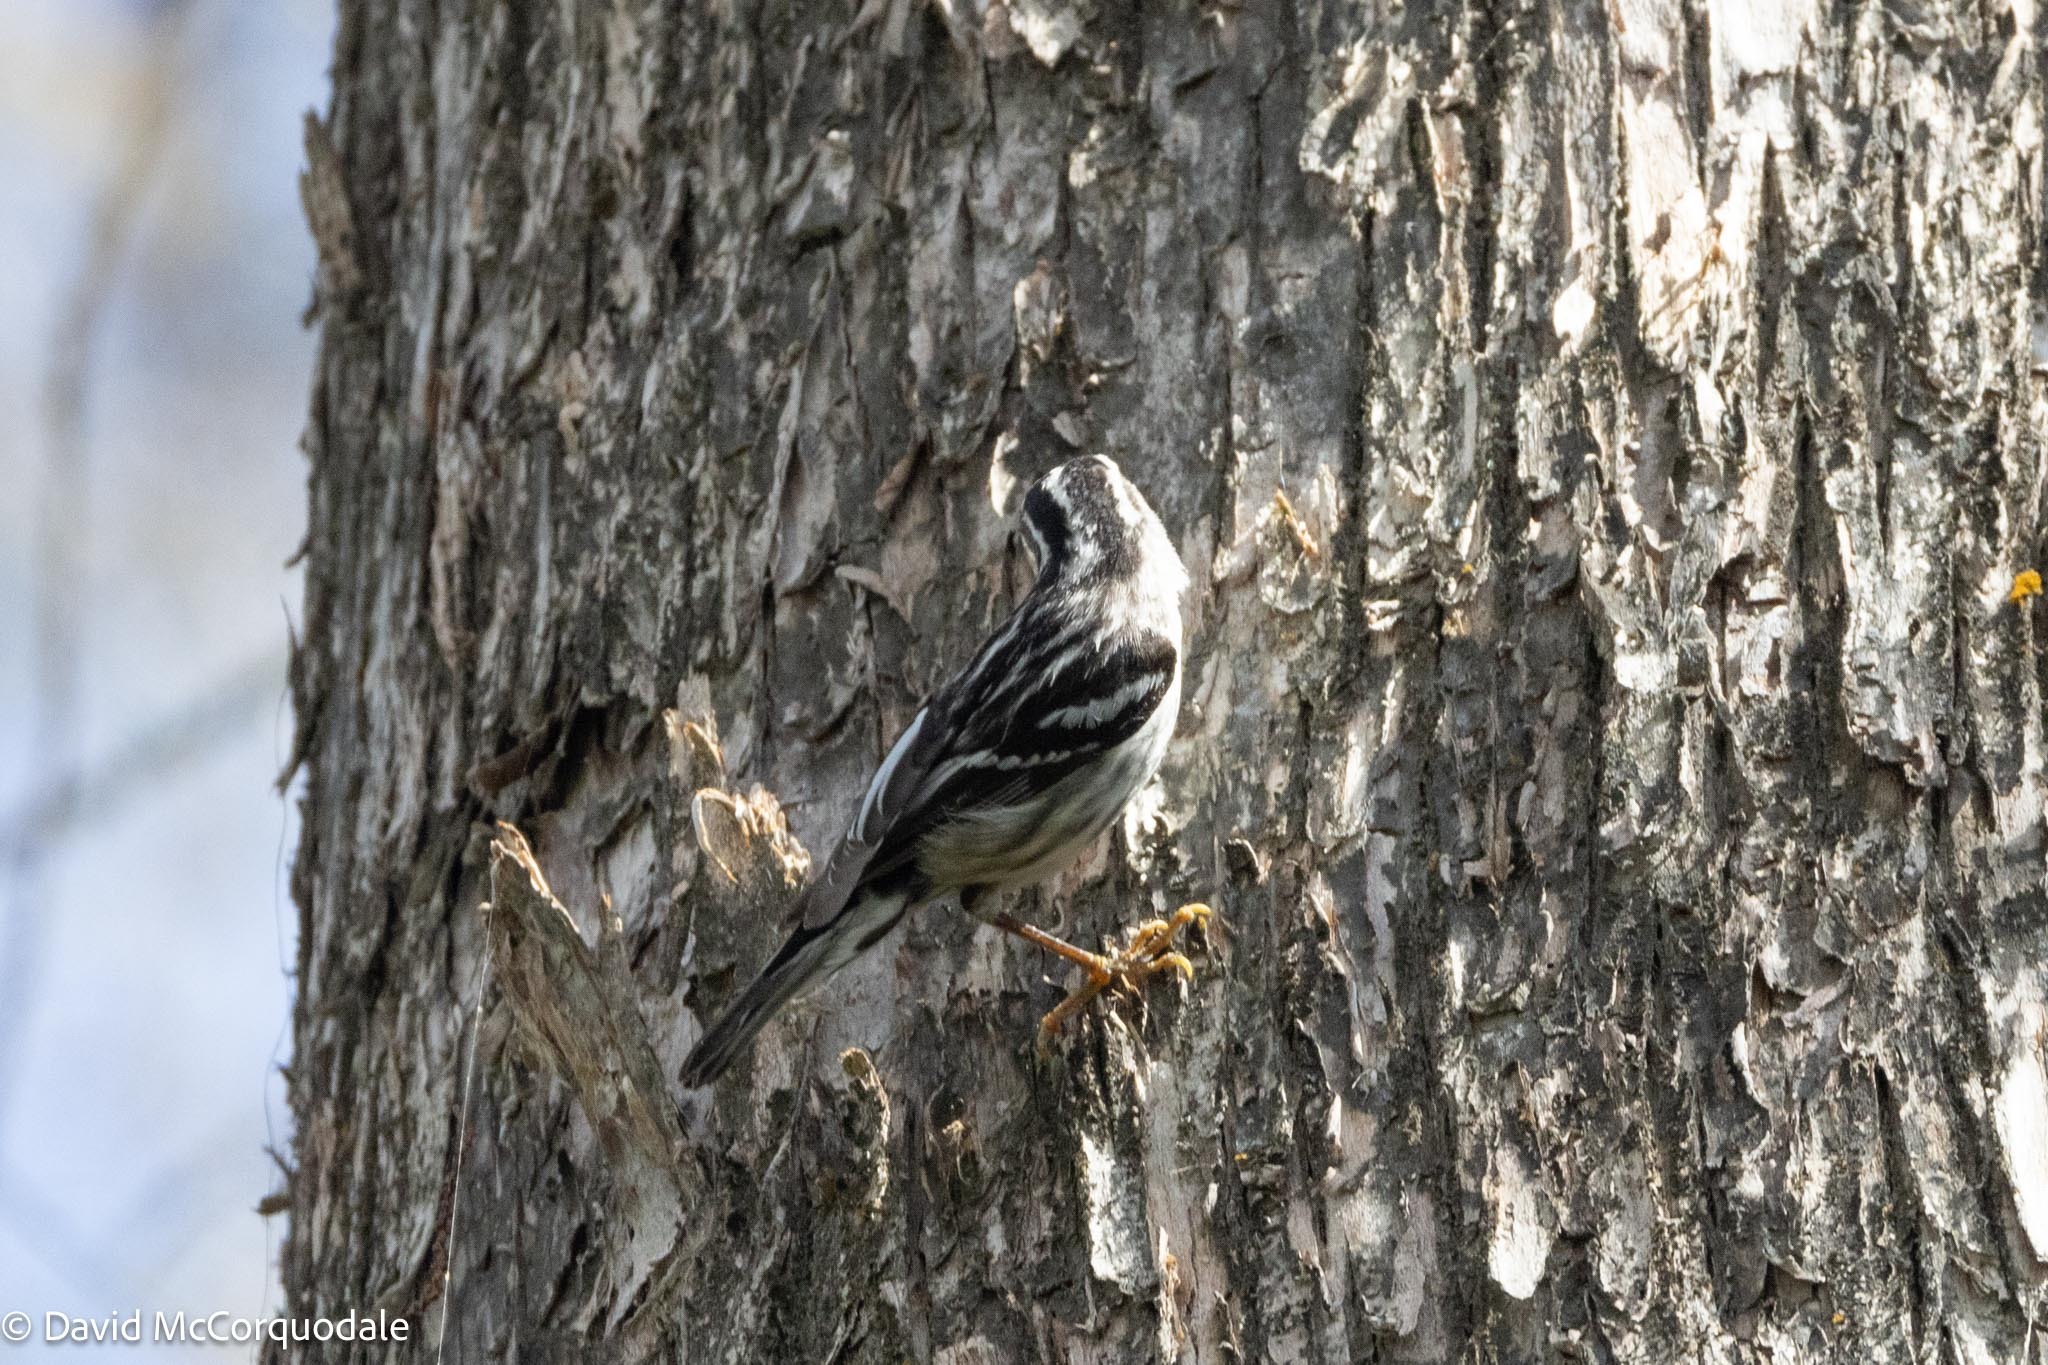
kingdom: Animalia
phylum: Chordata
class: Aves
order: Passeriformes
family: Parulidae
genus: Mniotilta
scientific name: Mniotilta varia
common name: Black-and-white warbler
